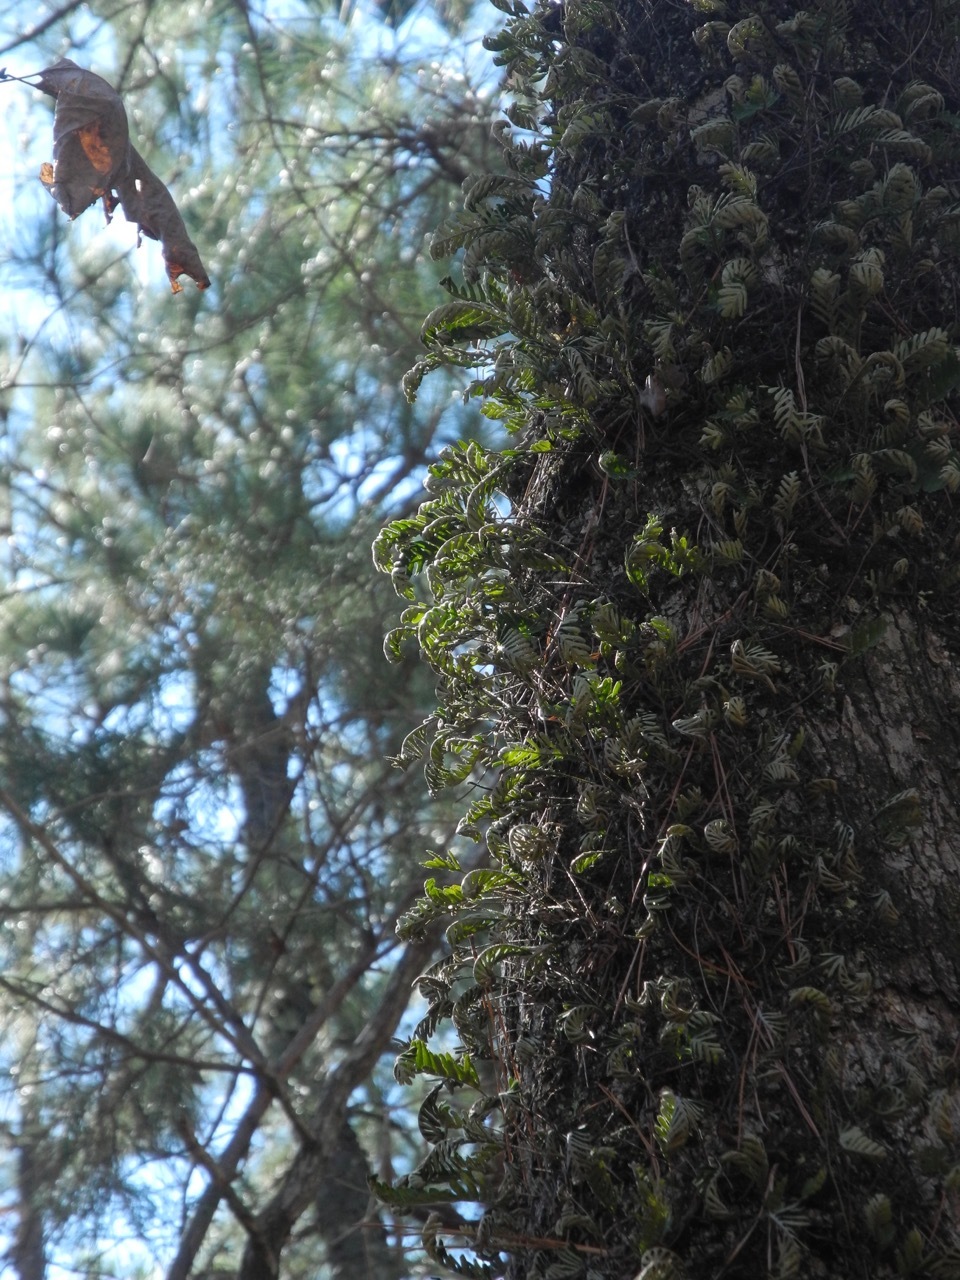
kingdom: Plantae
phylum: Tracheophyta
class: Polypodiopsida
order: Polypodiales
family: Polypodiaceae
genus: Pleopeltis
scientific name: Pleopeltis michauxiana
